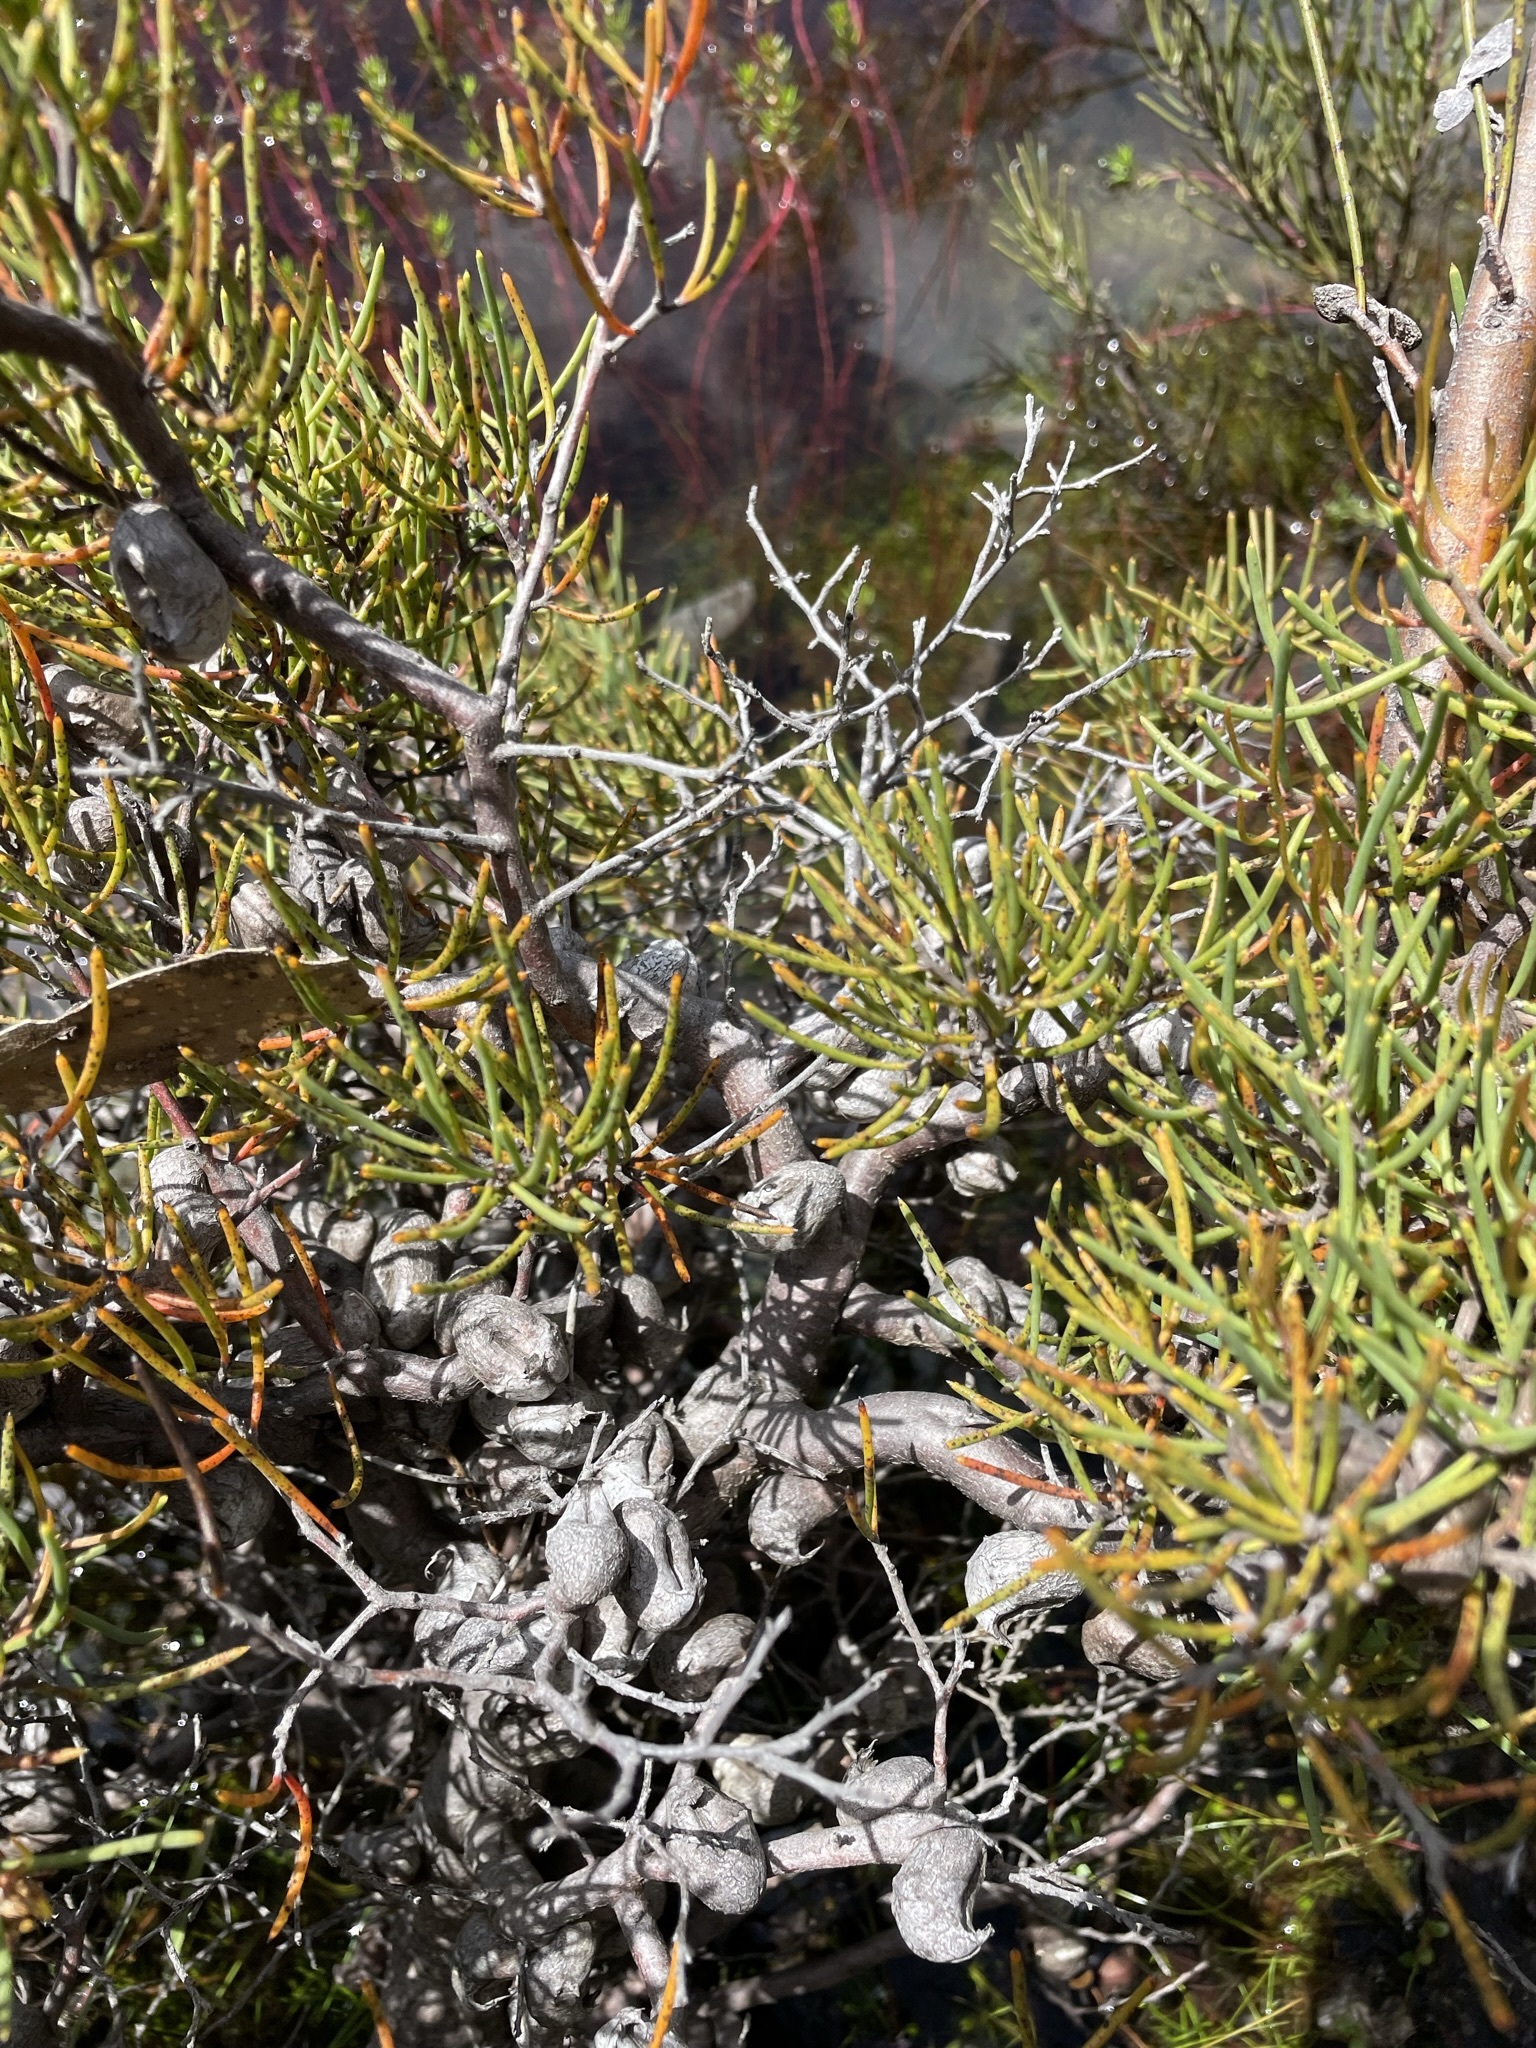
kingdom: Plantae
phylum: Tracheophyta
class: Magnoliopsida
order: Proteales
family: Proteaceae
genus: Hakea
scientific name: Hakea epiglottis
